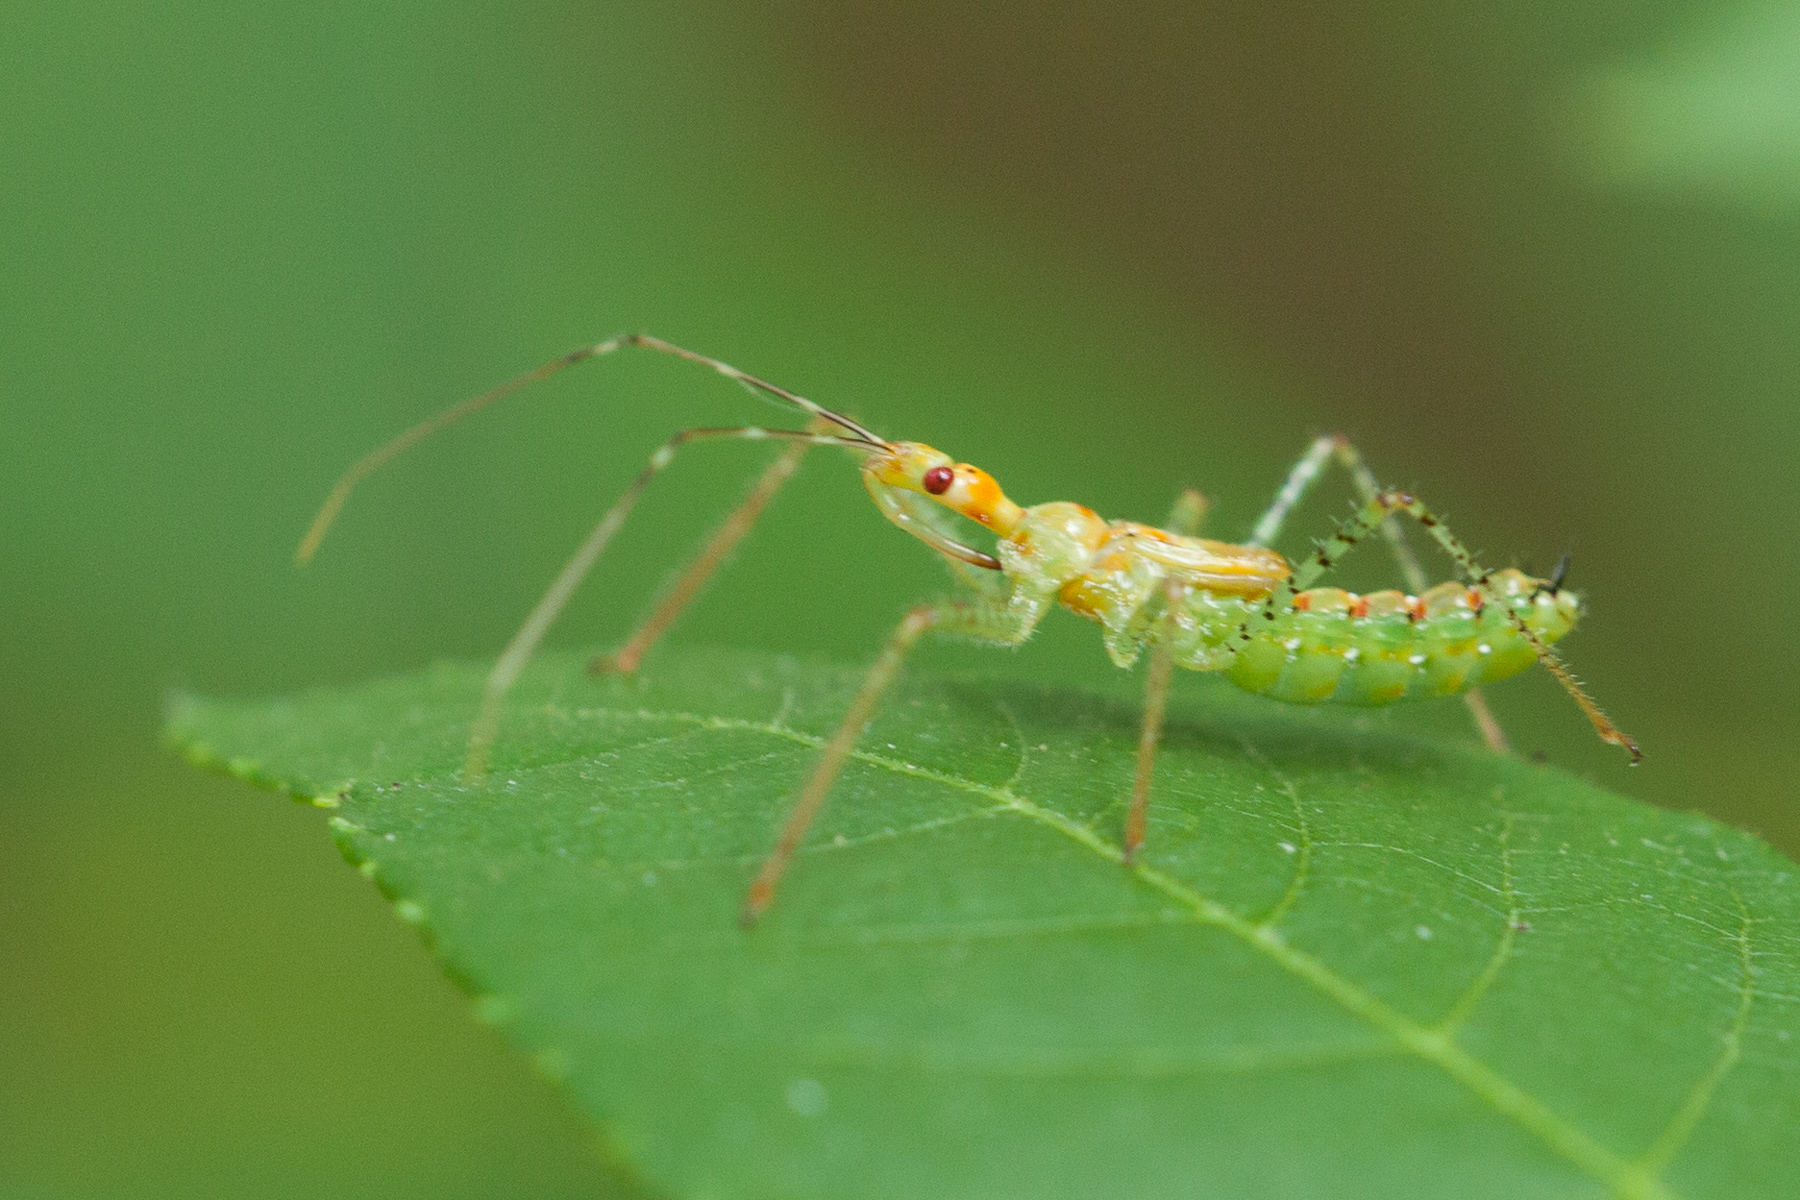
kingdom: Animalia
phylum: Arthropoda
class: Insecta
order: Hemiptera
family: Reduviidae
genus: Zelus
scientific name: Zelus renardii
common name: Assassin bug
